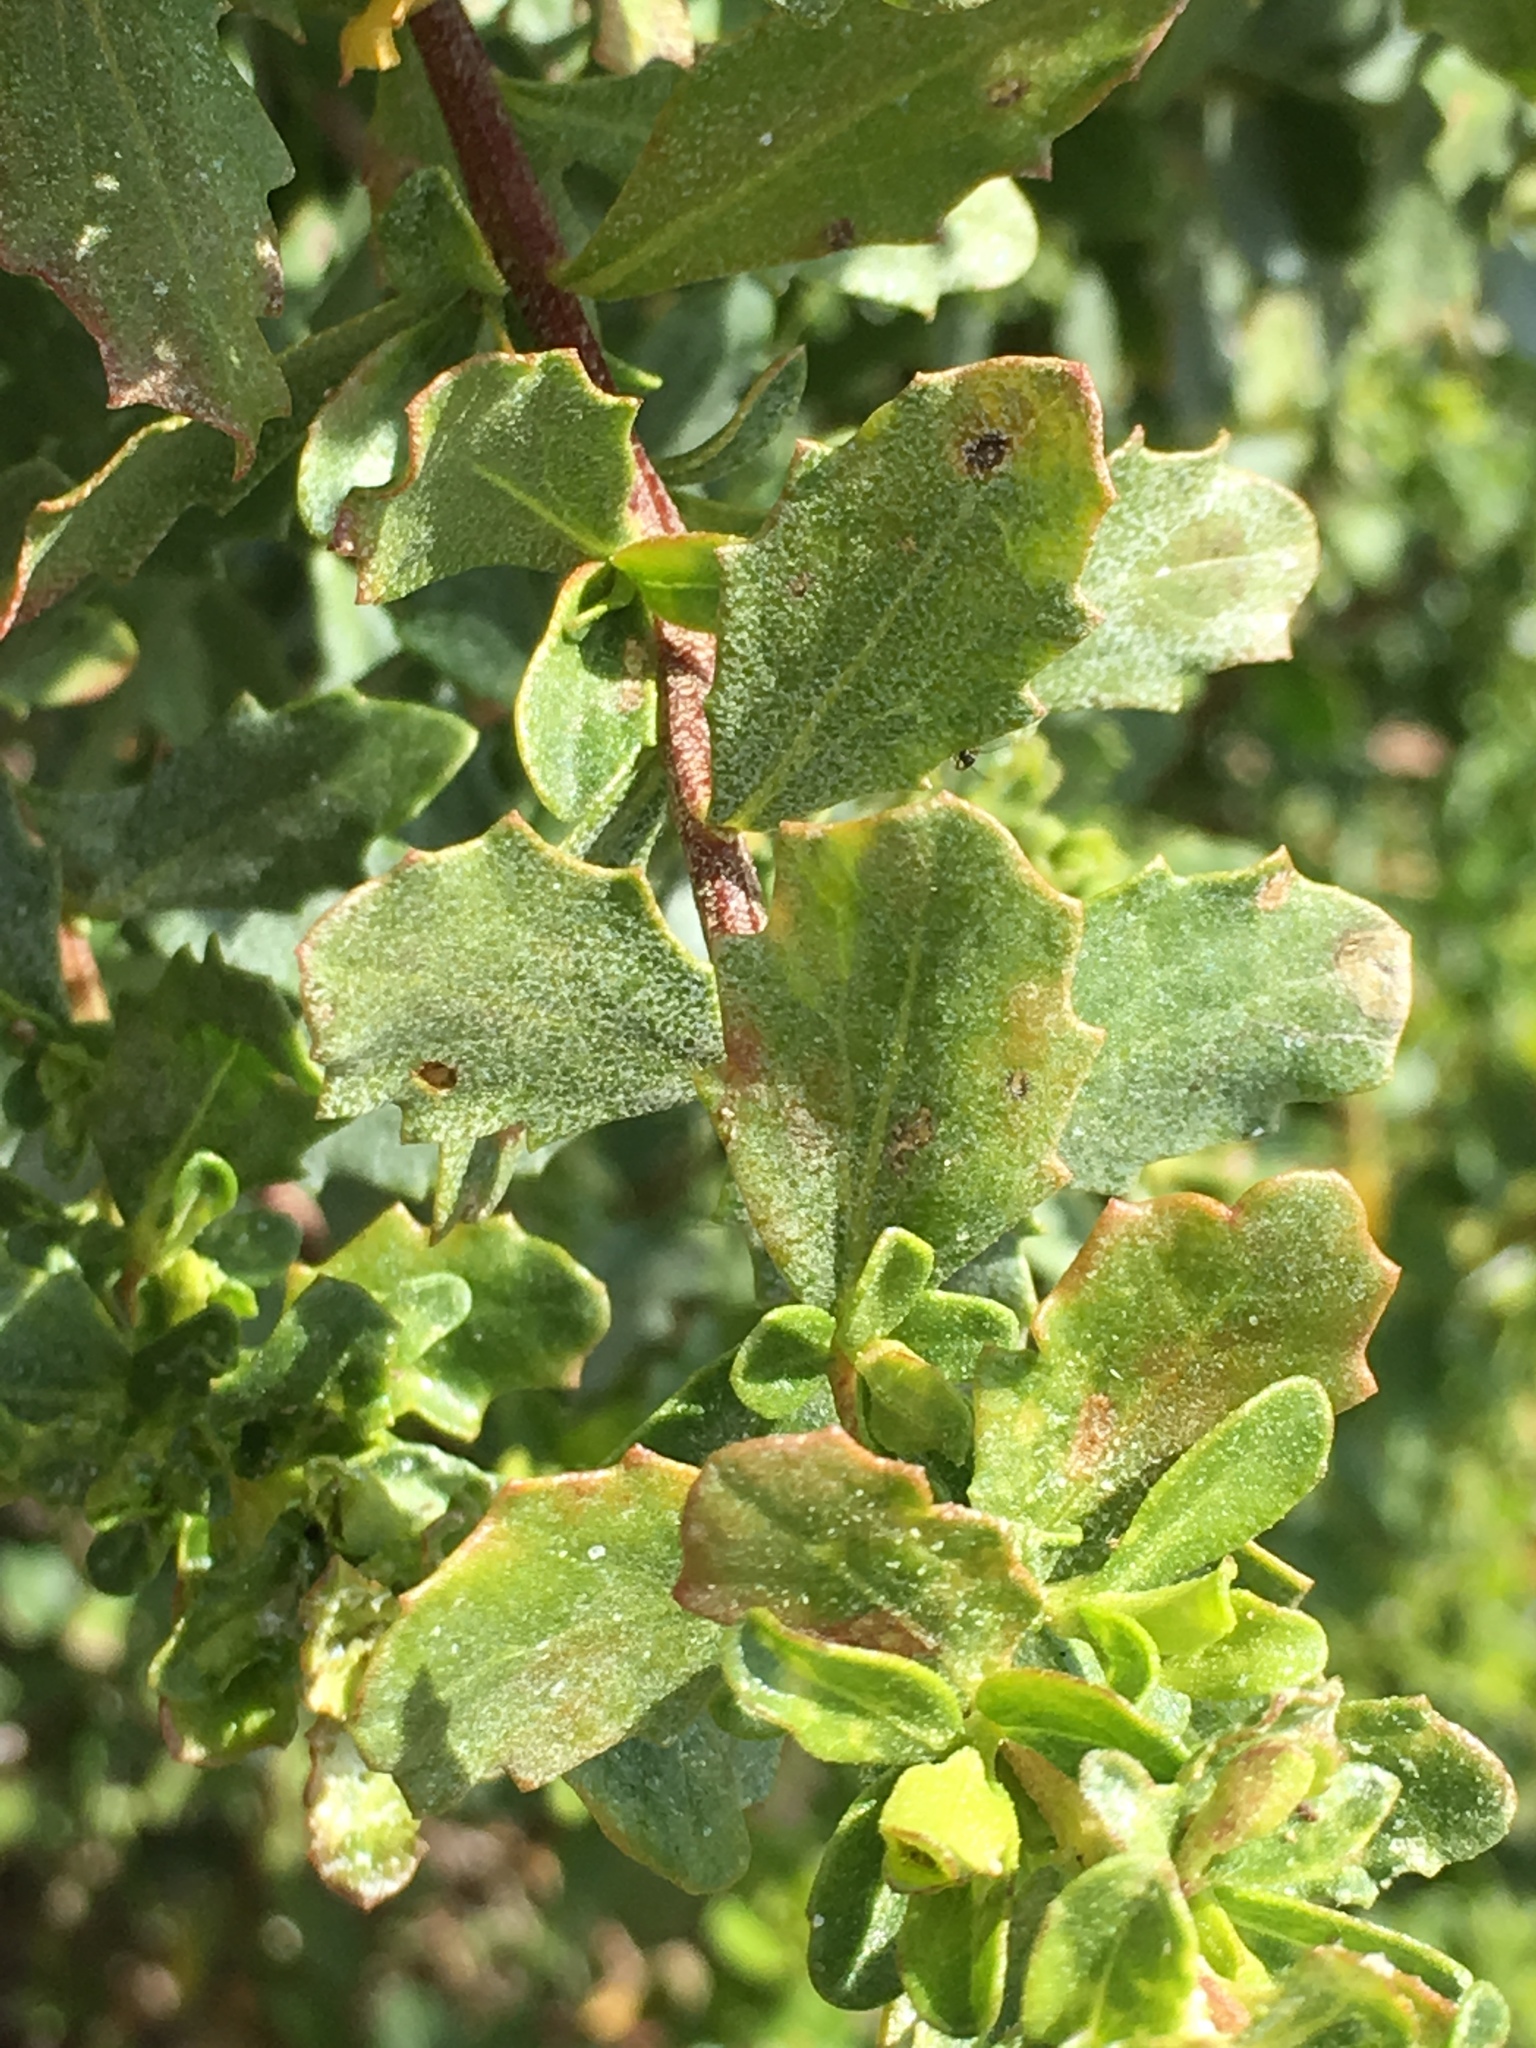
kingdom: Plantae
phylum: Tracheophyta
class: Magnoliopsida
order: Asterales
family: Asteraceae
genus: Baccharis
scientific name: Baccharis pilularis
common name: Coyotebrush
